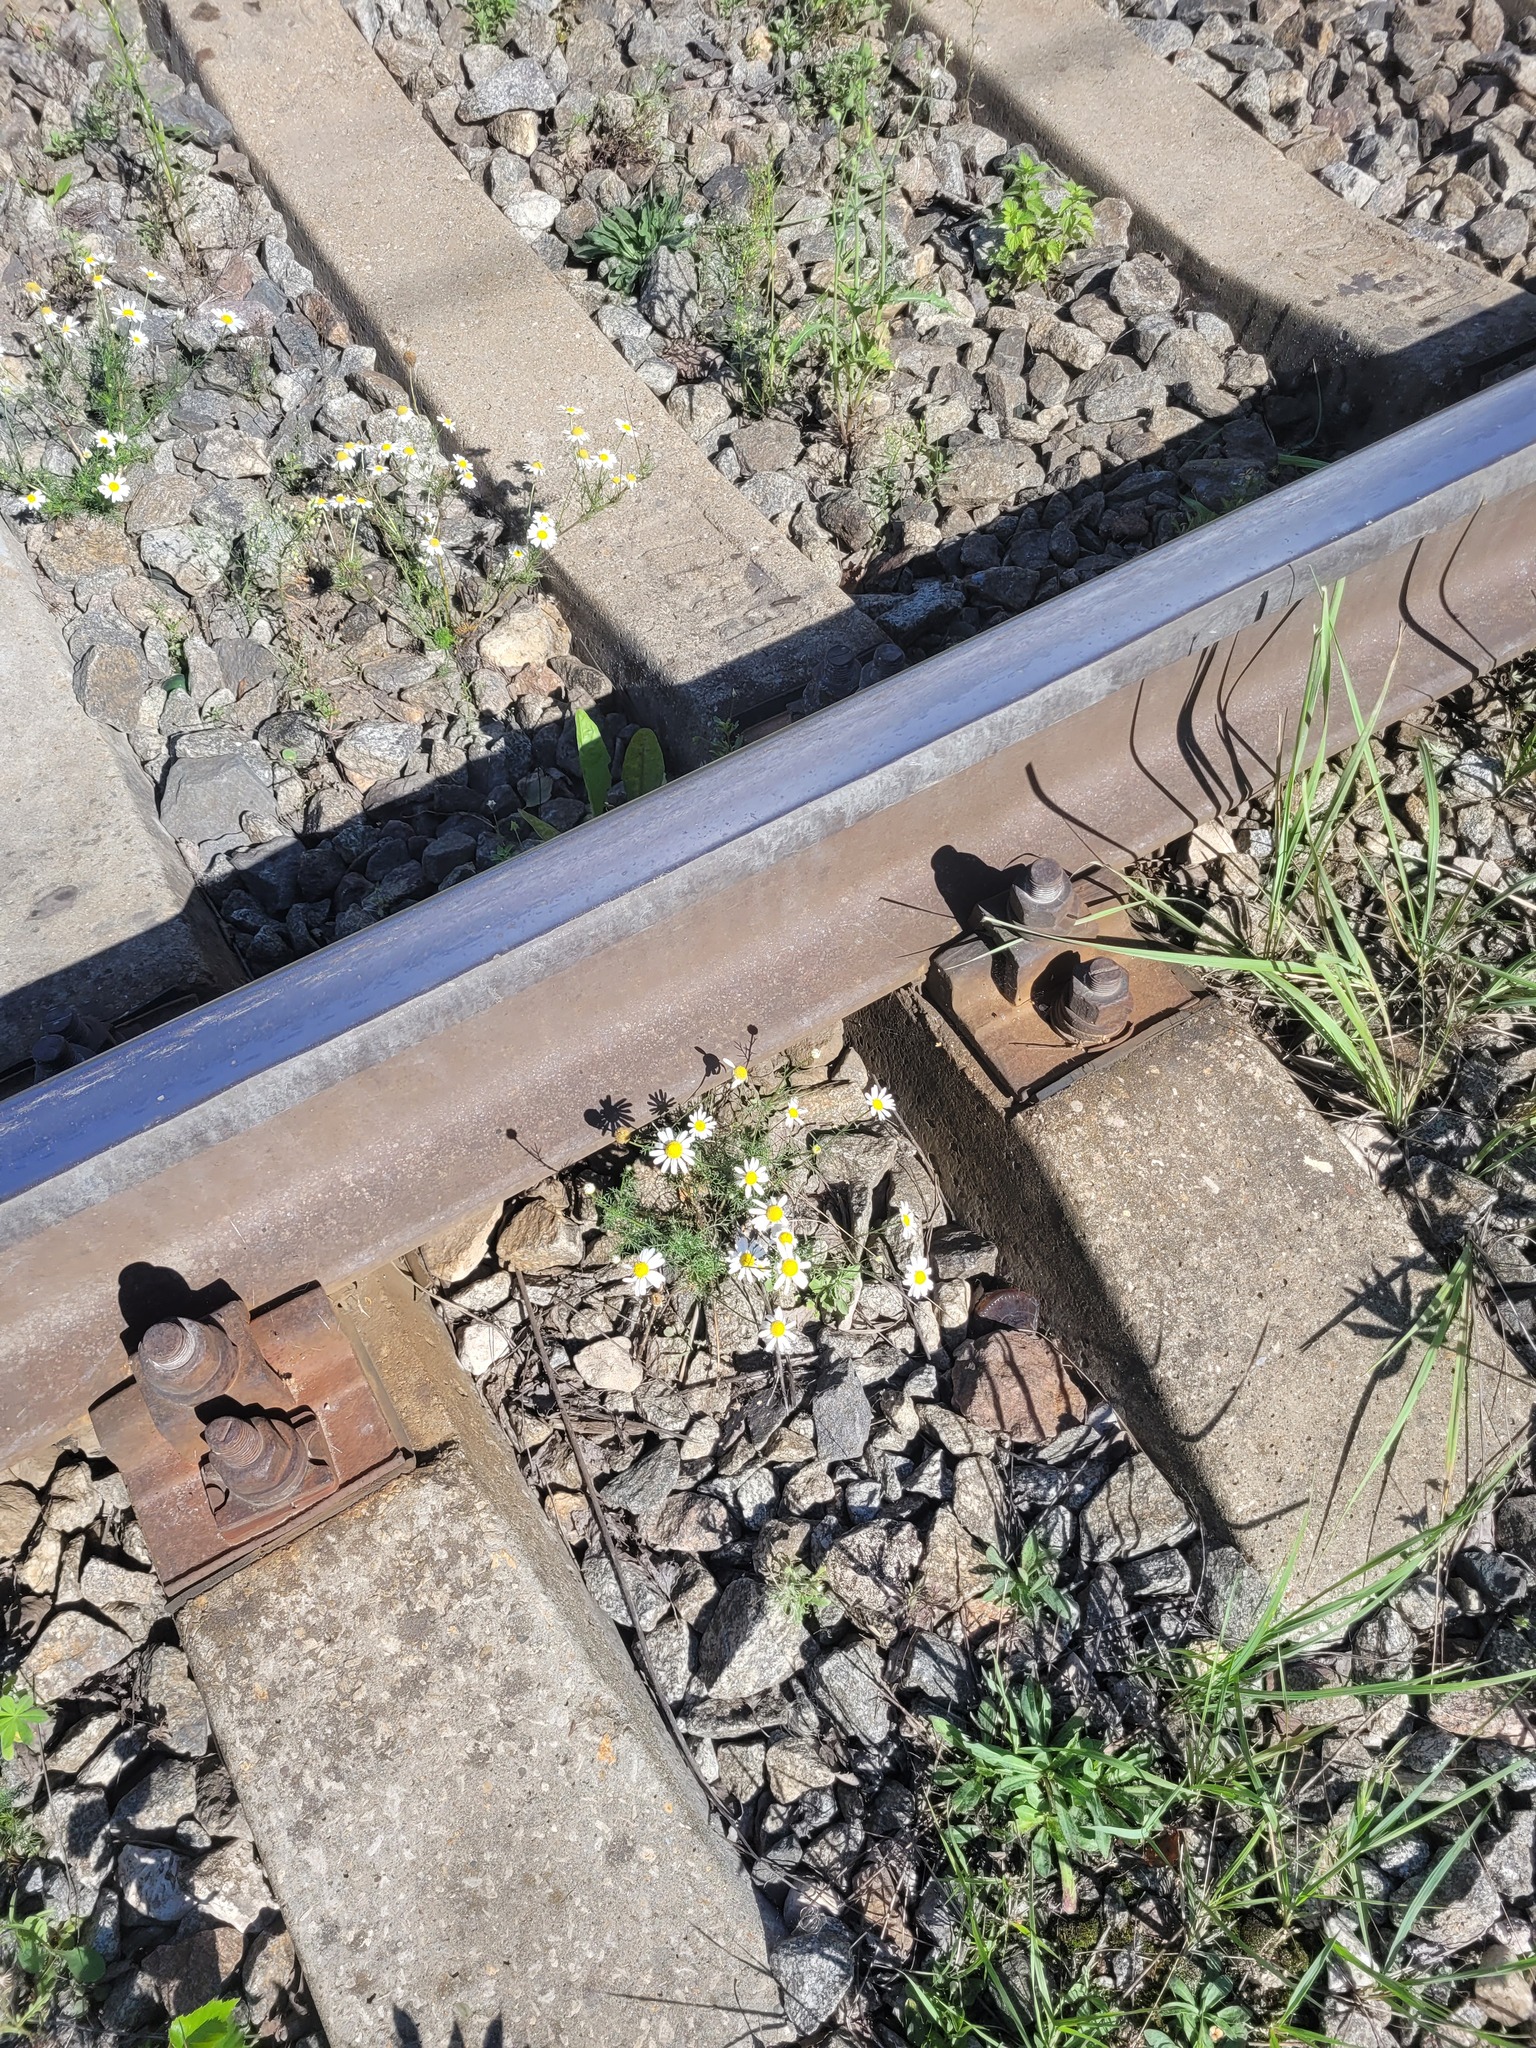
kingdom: Plantae
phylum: Tracheophyta
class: Magnoliopsida
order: Asterales
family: Asteraceae
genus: Tripleurospermum
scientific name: Tripleurospermum inodorum
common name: Scentless mayweed
